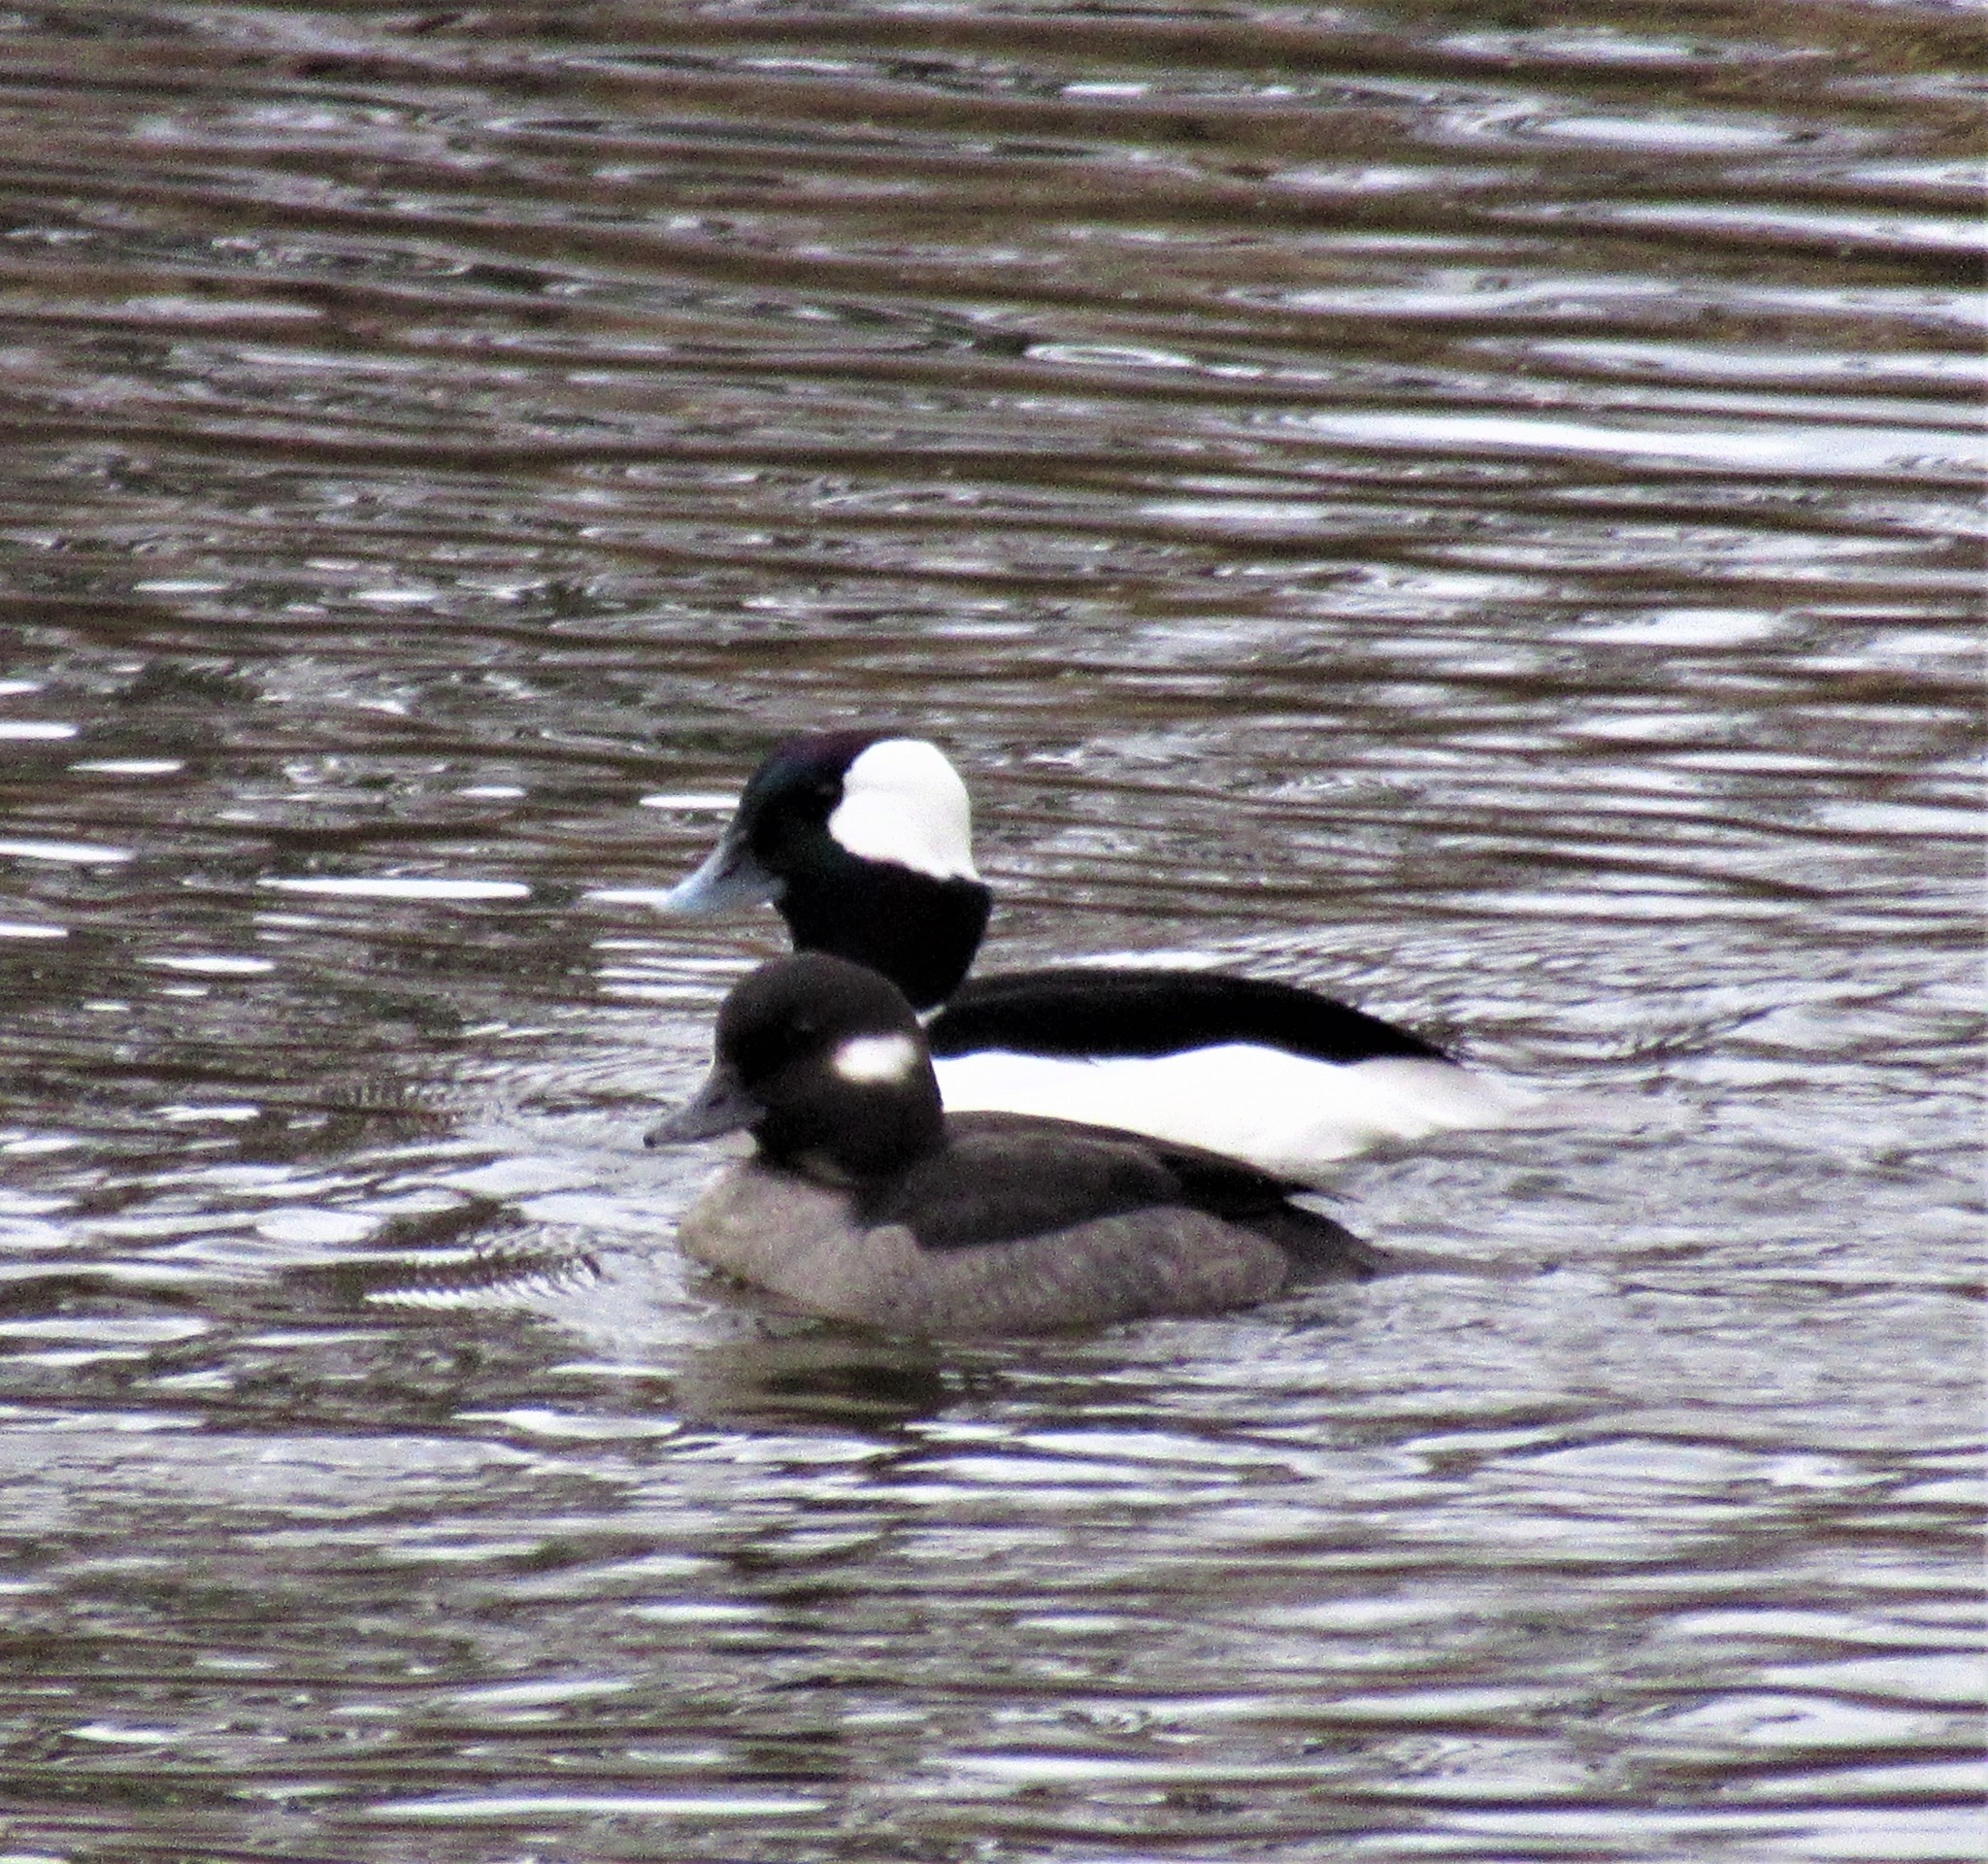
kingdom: Animalia
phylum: Chordata
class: Aves
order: Anseriformes
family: Anatidae
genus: Bucephala
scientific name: Bucephala albeola
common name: Bufflehead
